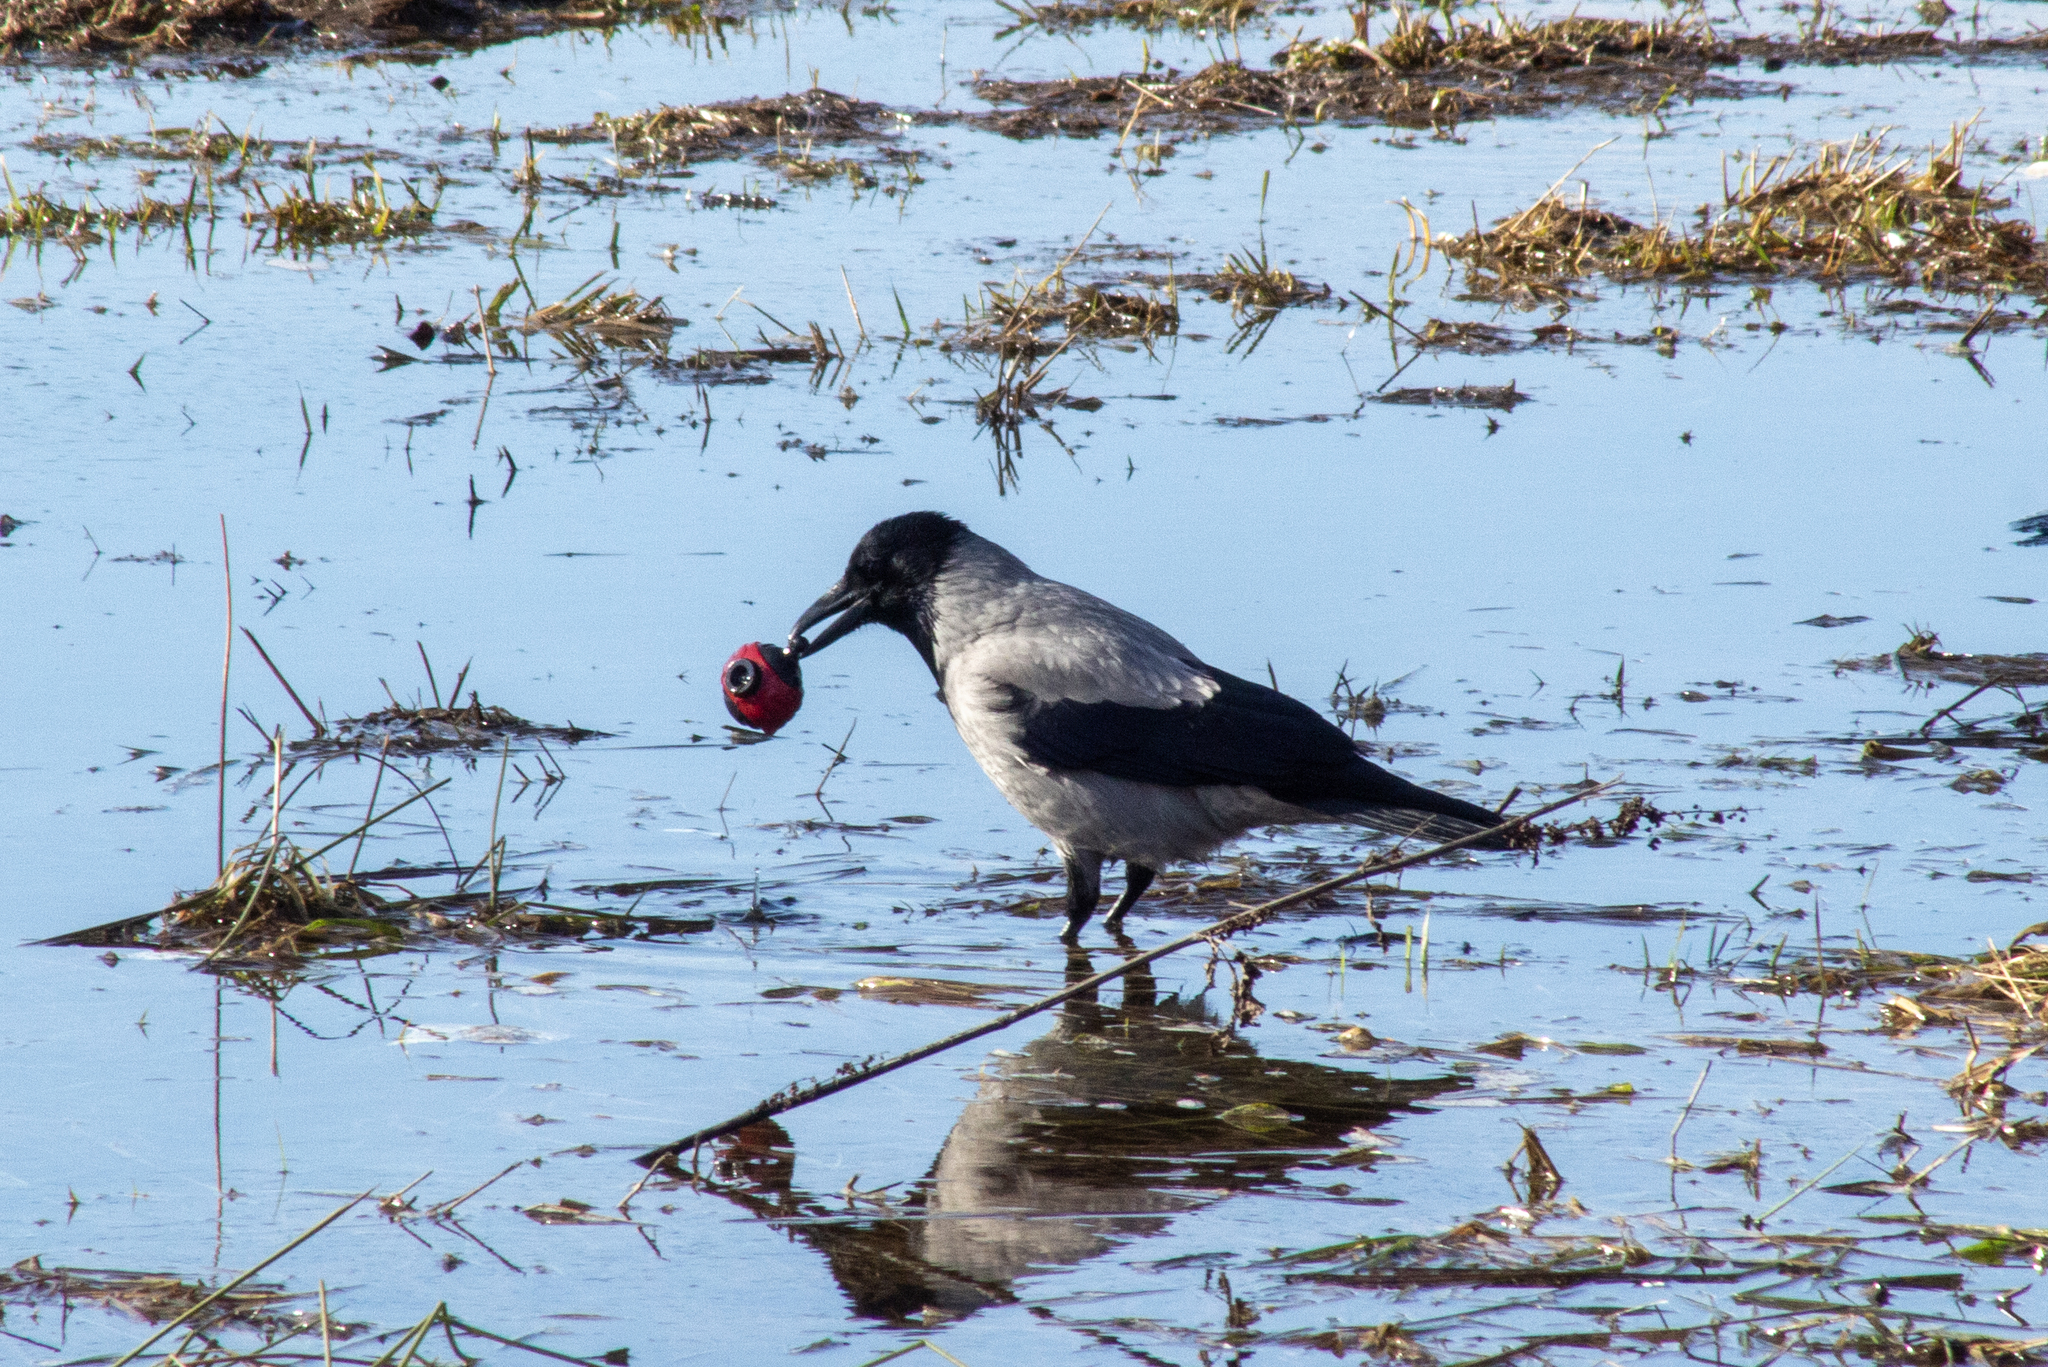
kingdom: Animalia
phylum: Chordata
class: Aves
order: Passeriformes
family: Corvidae
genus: Corvus
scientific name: Corvus cornix
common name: Hooded crow
